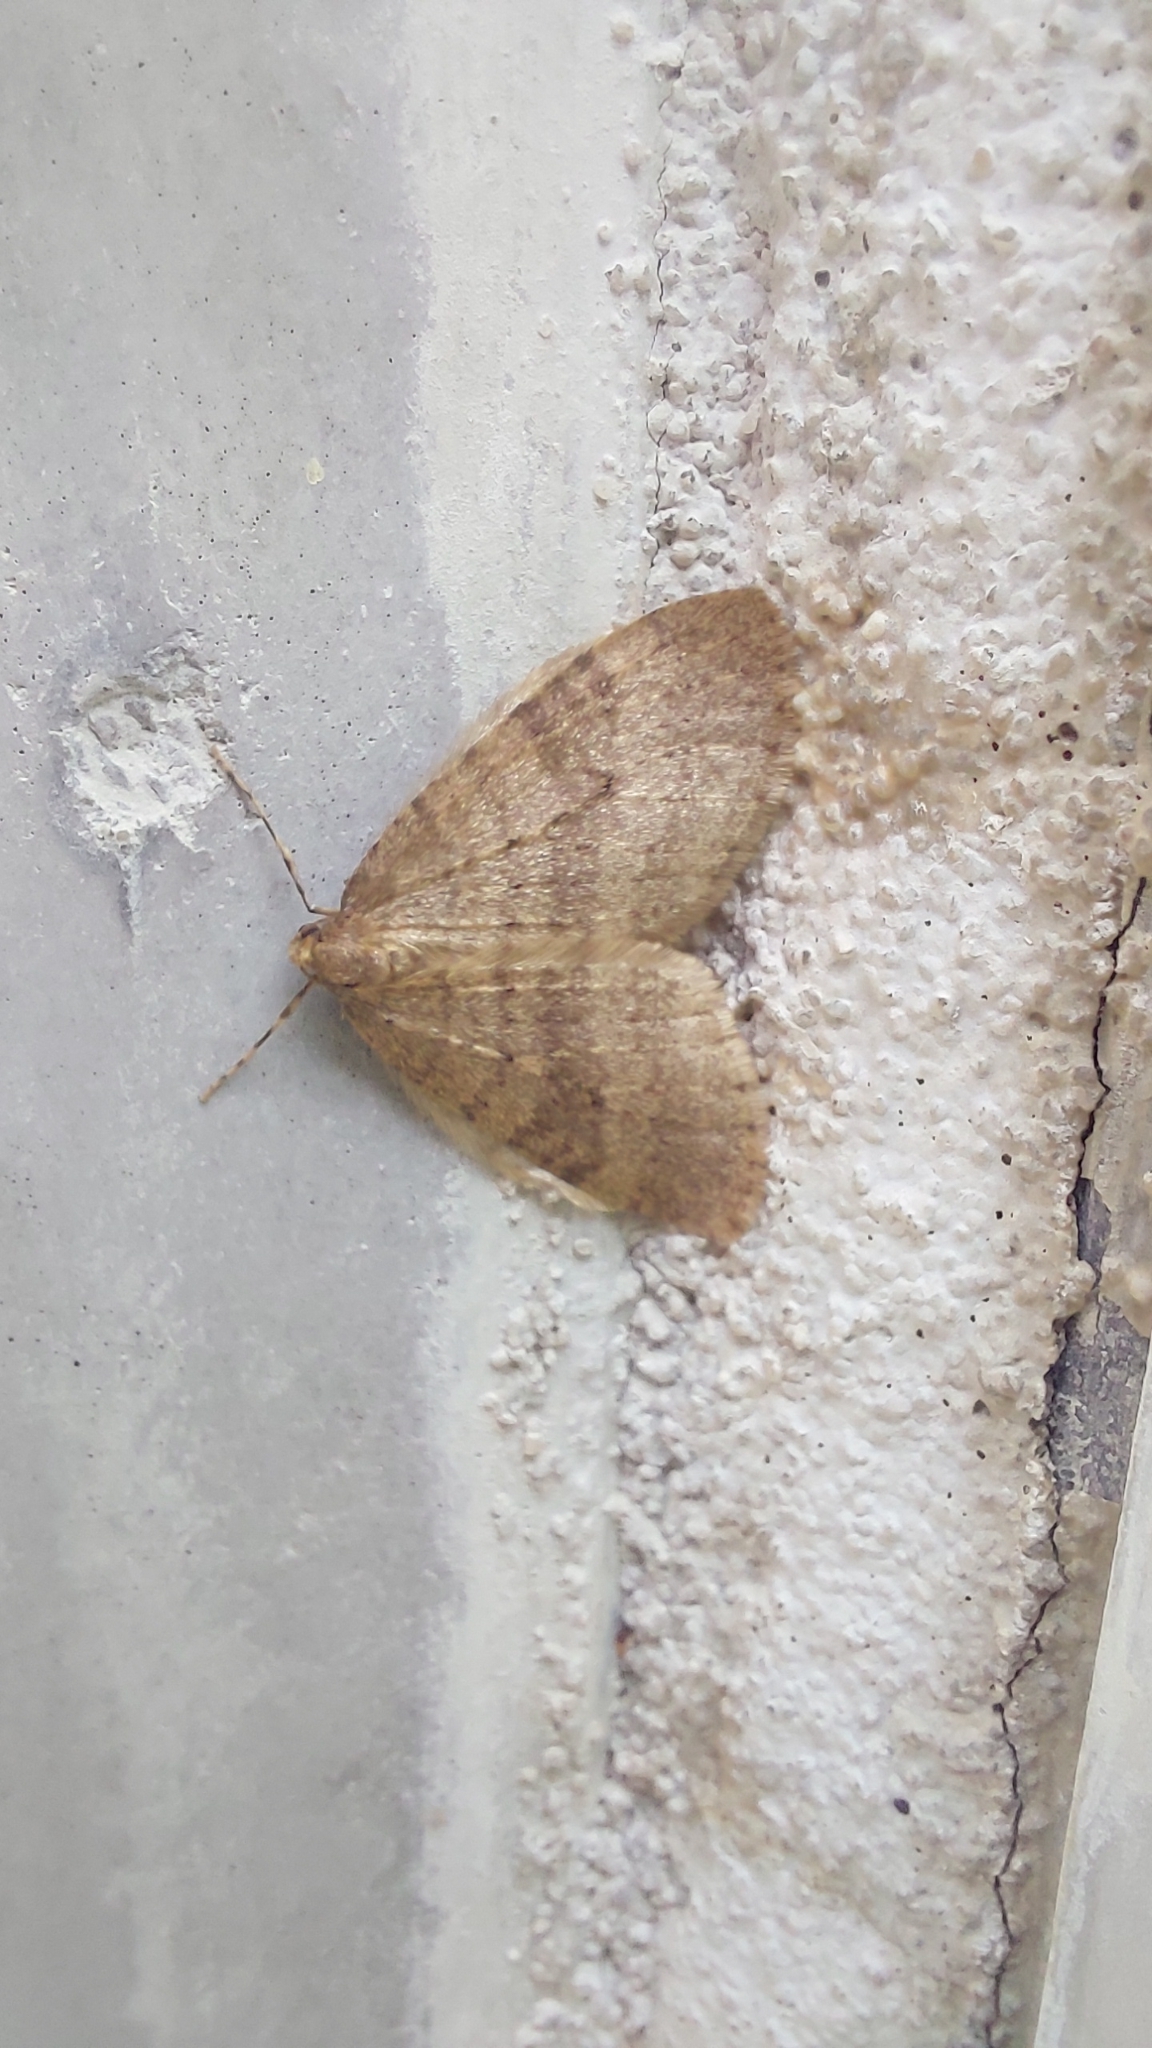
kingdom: Animalia
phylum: Arthropoda
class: Insecta
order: Lepidoptera
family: Geometridae
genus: Operophtera
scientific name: Operophtera brumata
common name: Winter moth
